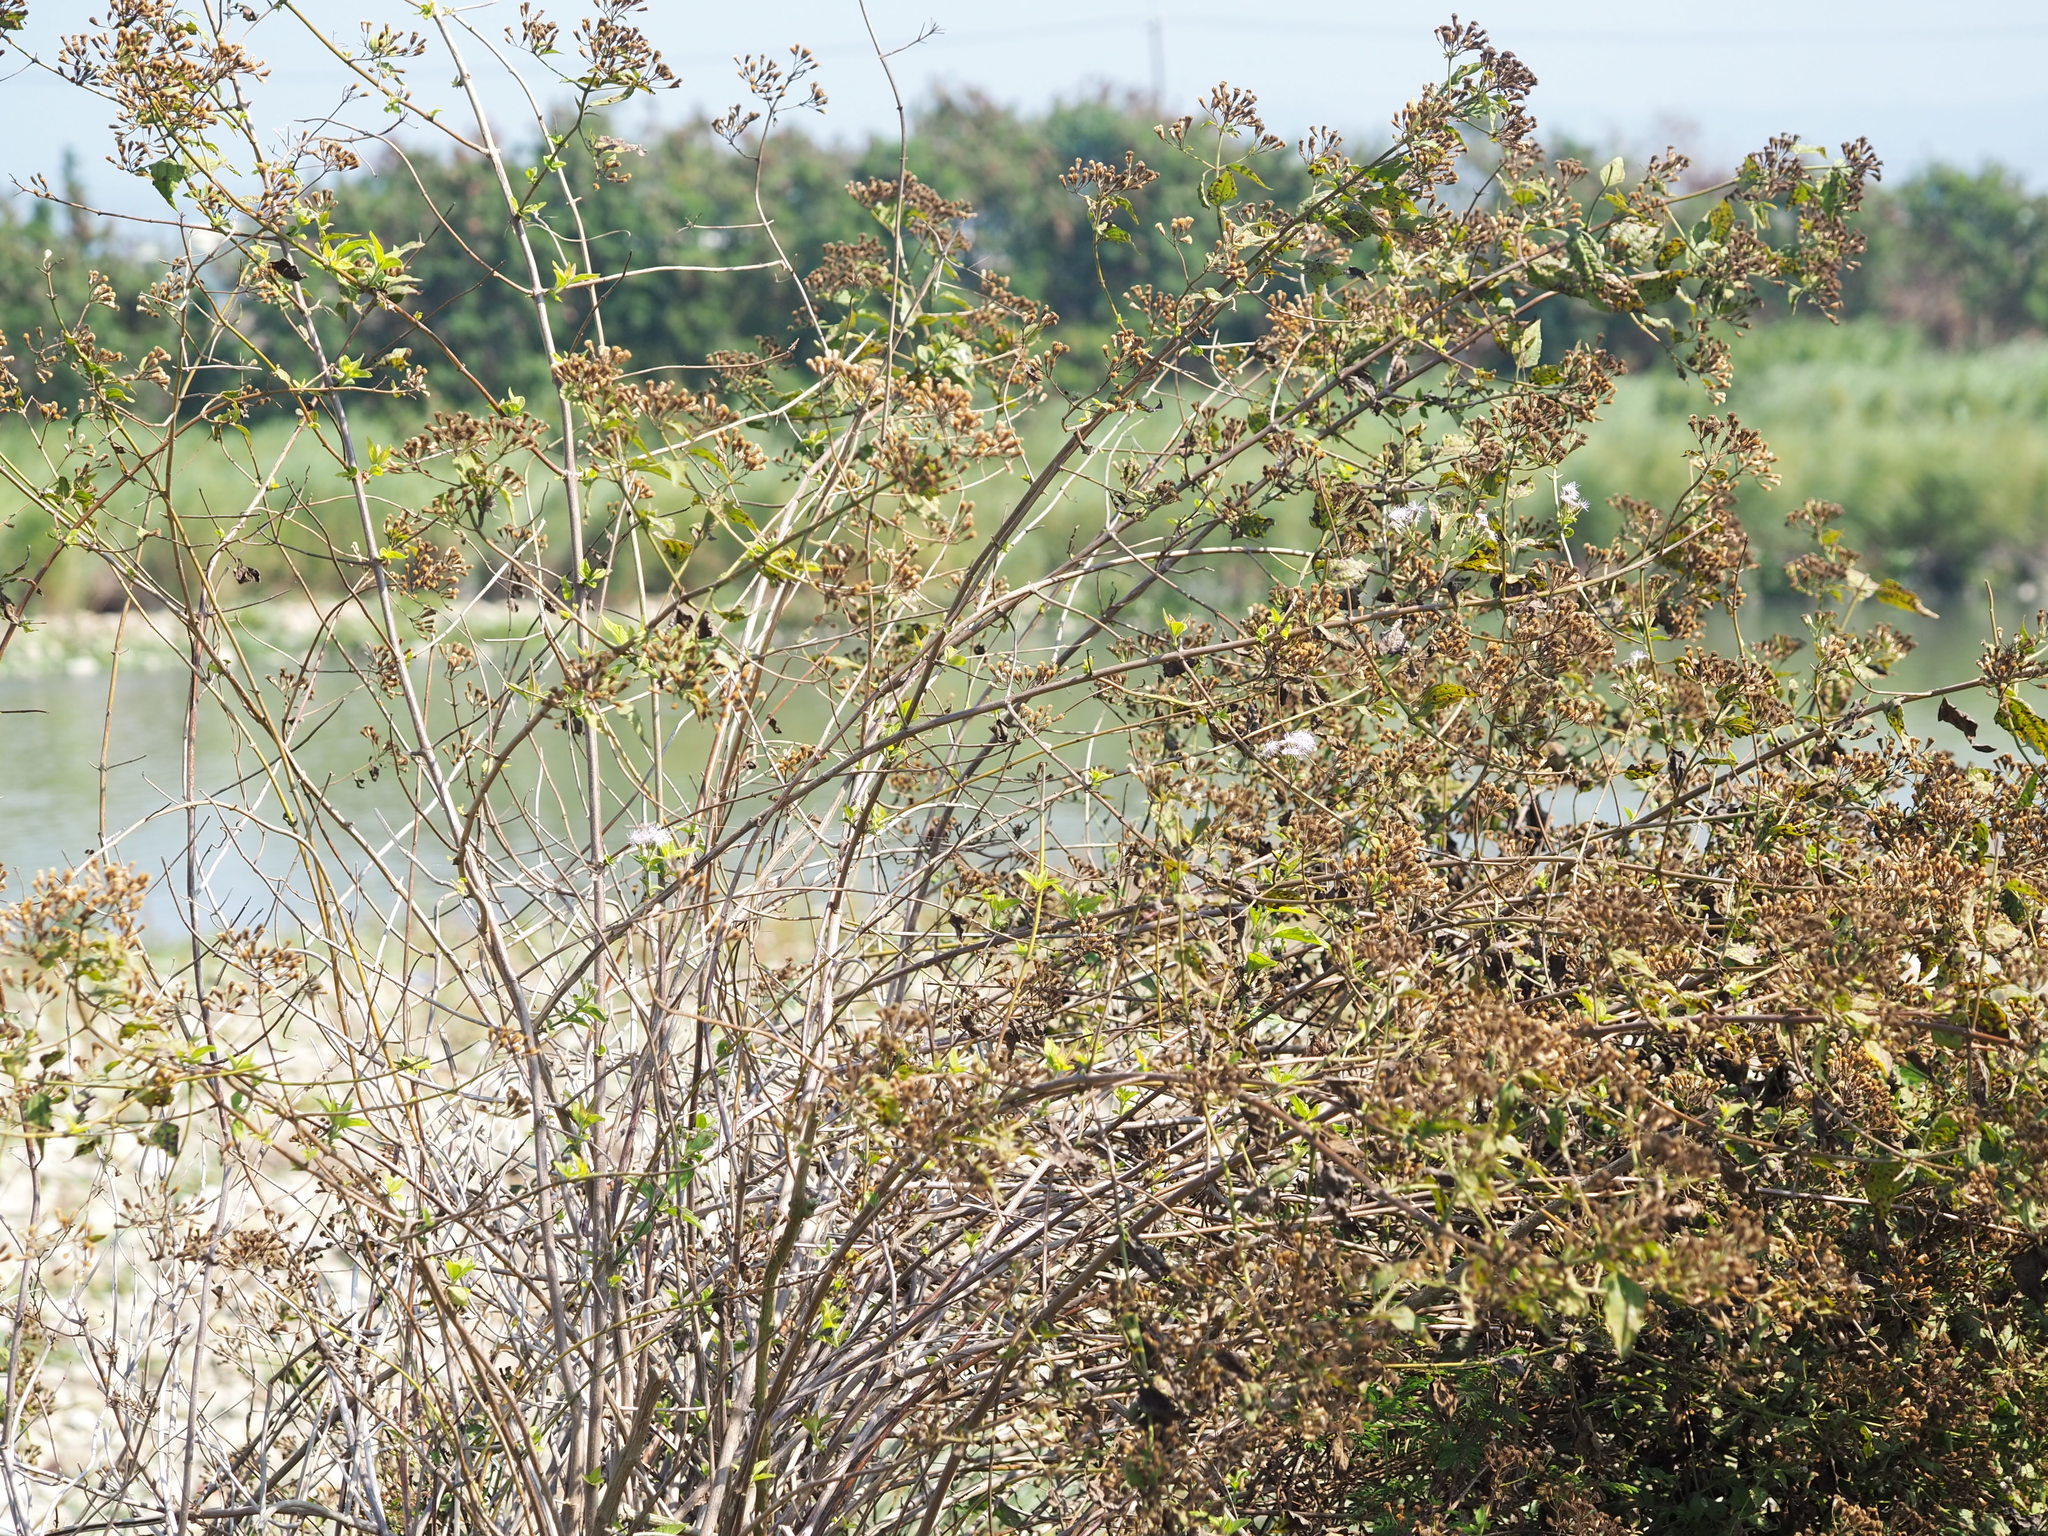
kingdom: Plantae
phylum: Tracheophyta
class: Magnoliopsida
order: Asterales
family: Asteraceae
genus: Chromolaena
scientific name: Chromolaena odorata
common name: Siamweed
